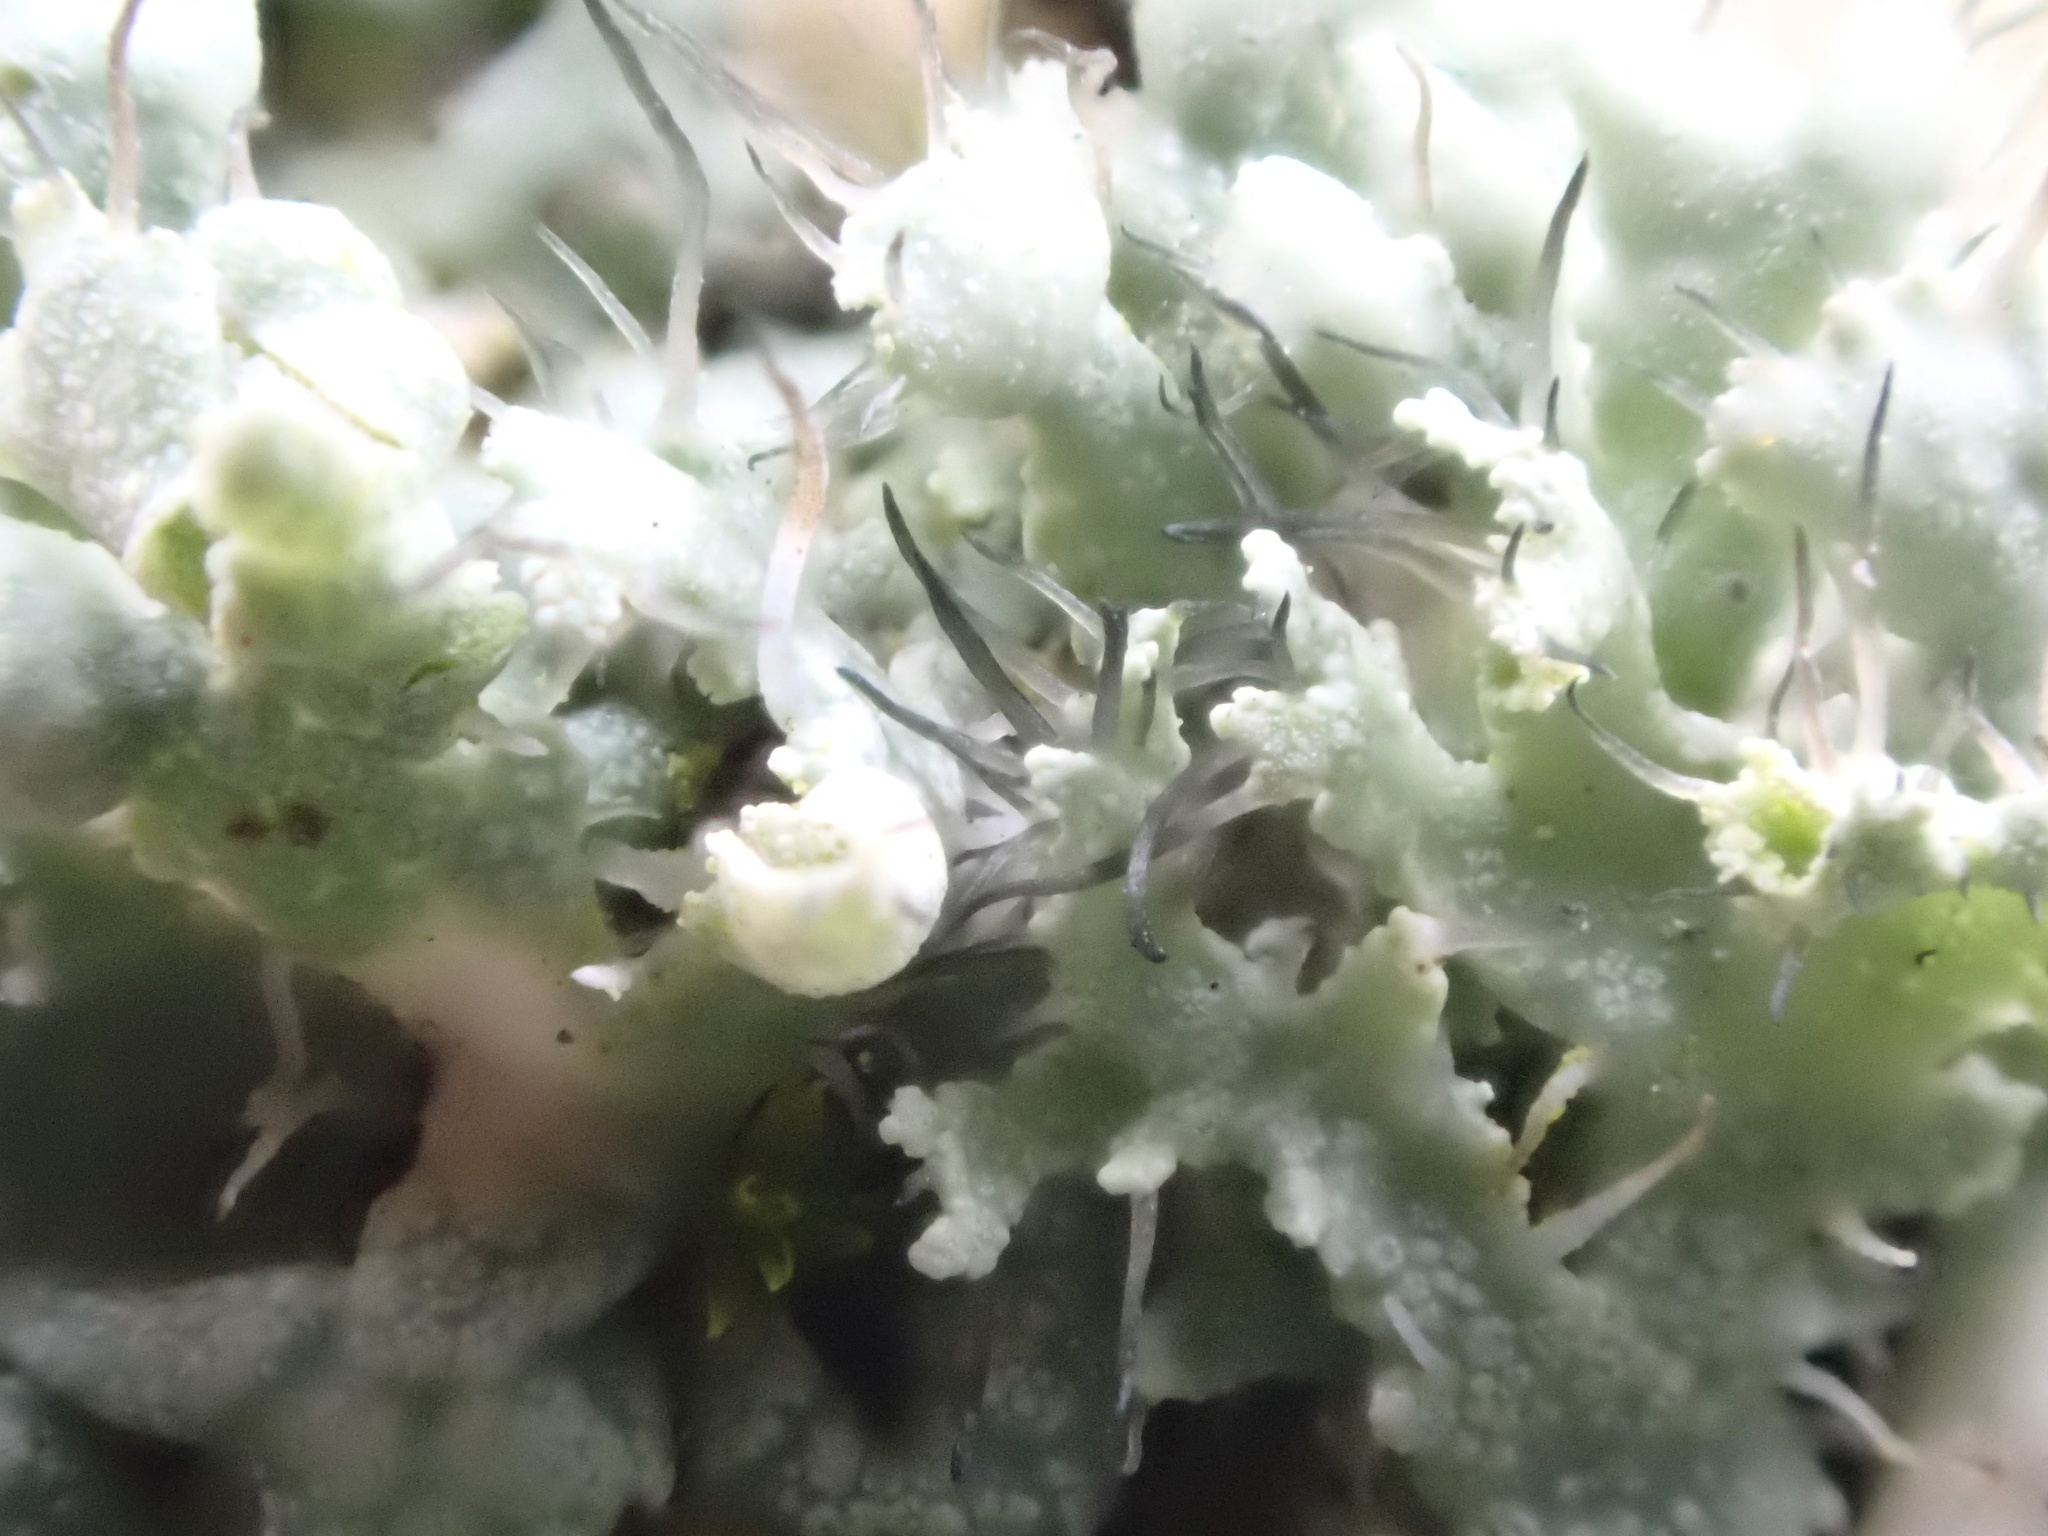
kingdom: Fungi
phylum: Ascomycota
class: Lecanoromycetes
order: Caliciales
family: Physciaceae
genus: Physcia
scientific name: Physcia adscendens
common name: Hooded rosette lichen
